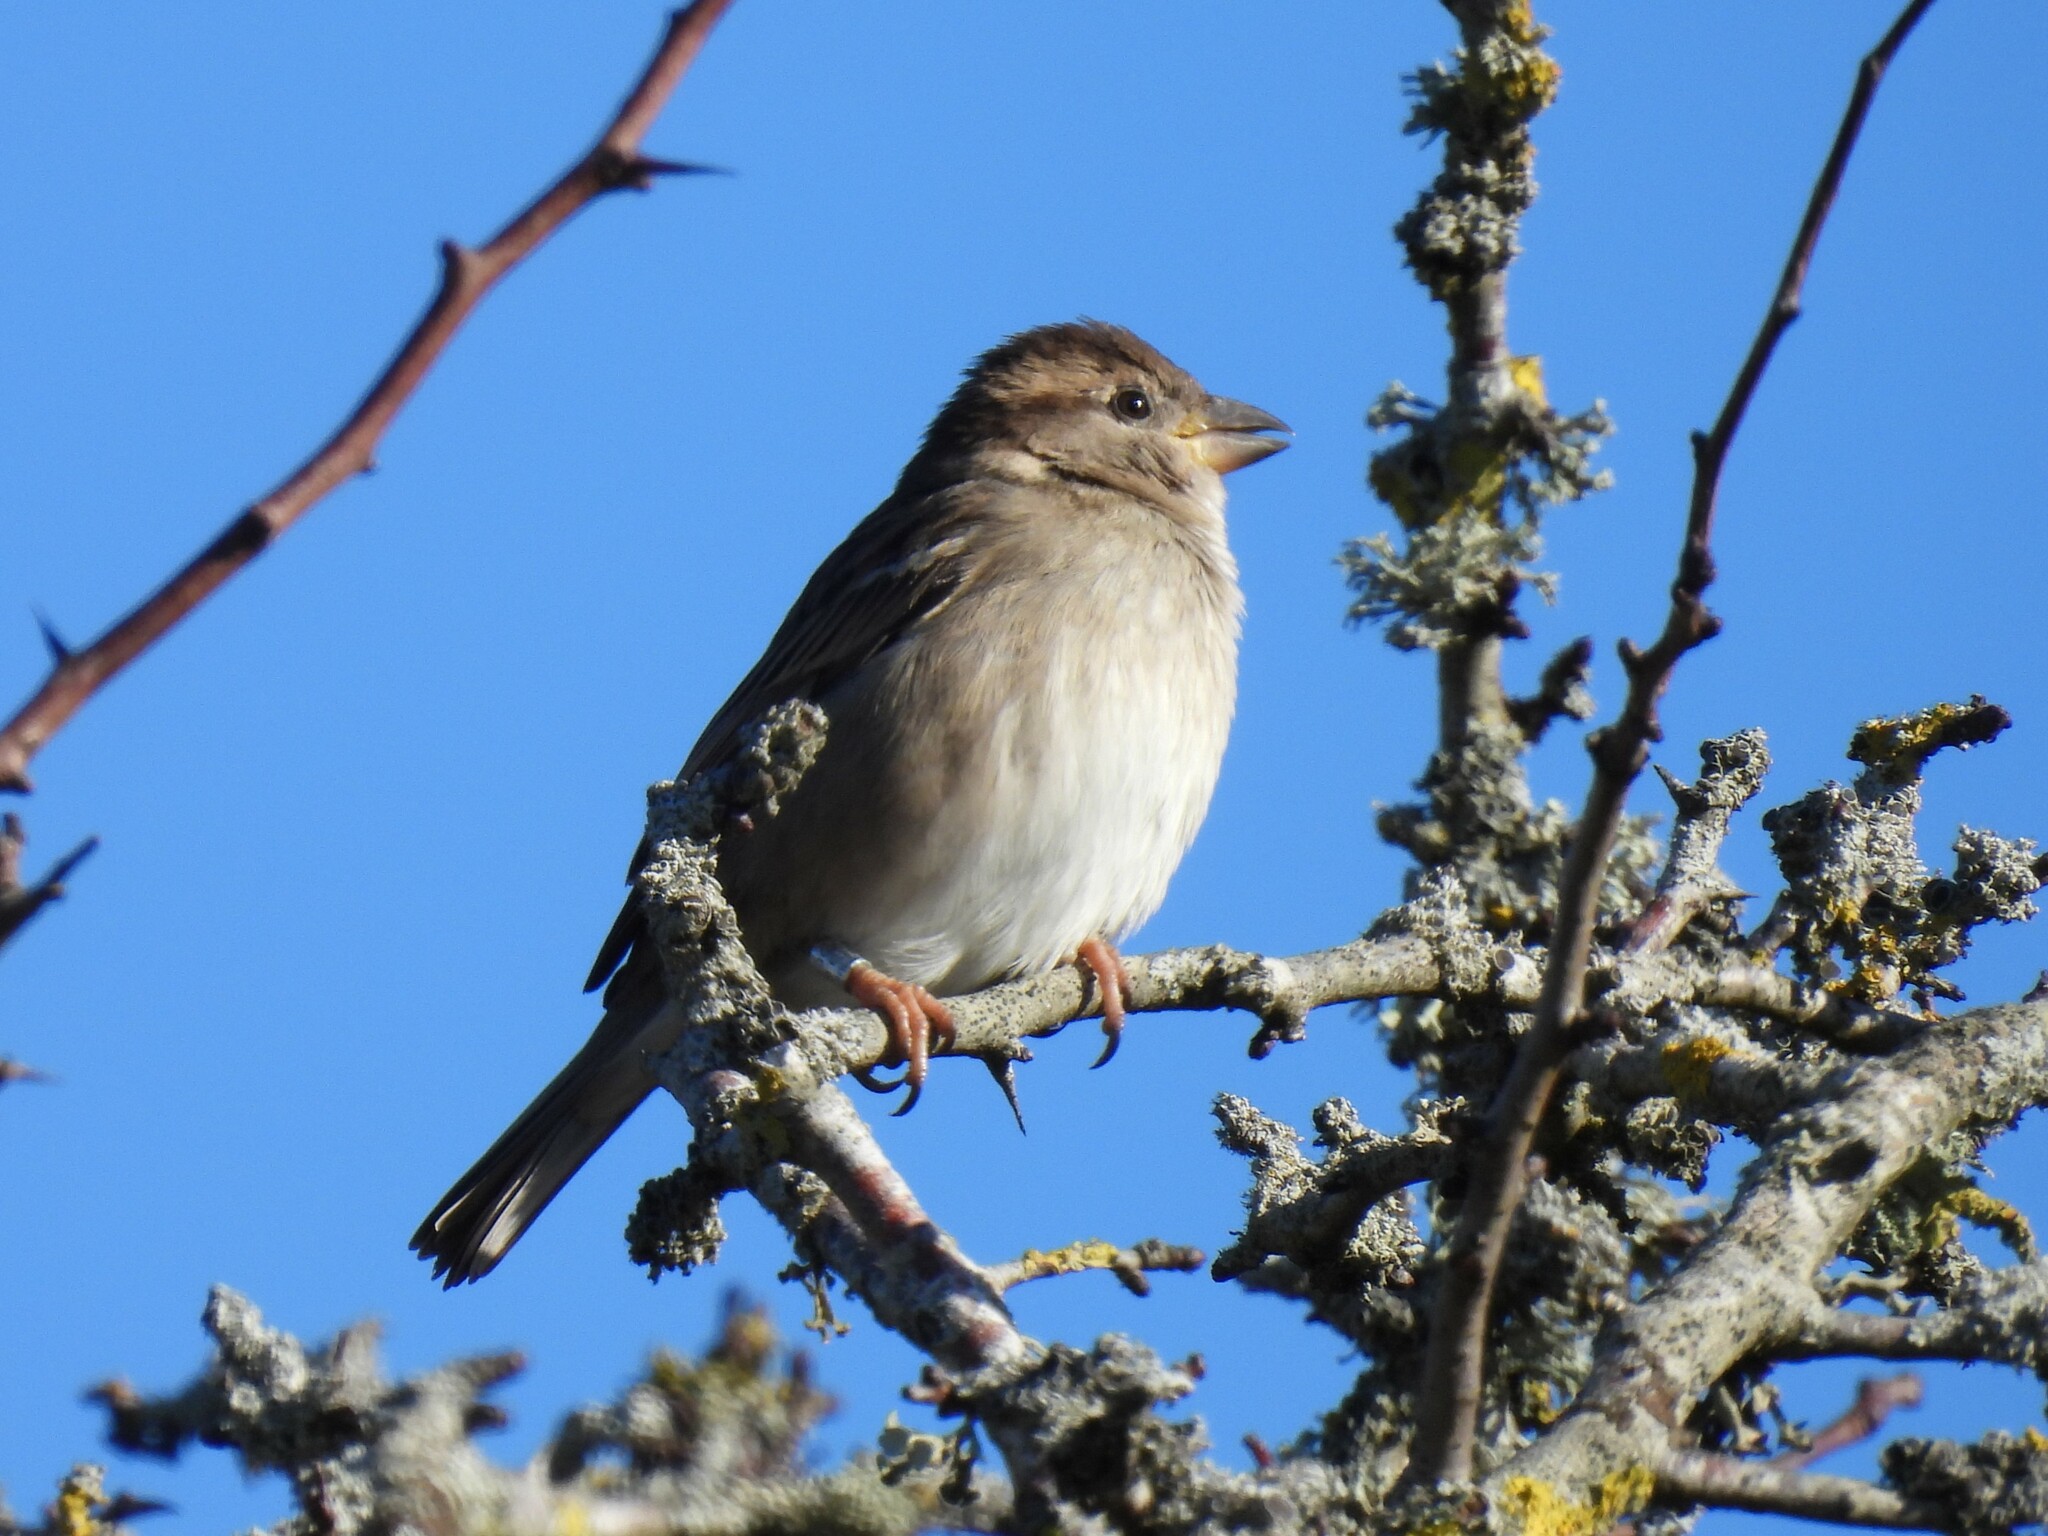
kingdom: Animalia
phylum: Chordata
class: Aves
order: Passeriformes
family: Passeridae
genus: Passer
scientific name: Passer domesticus
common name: House sparrow
